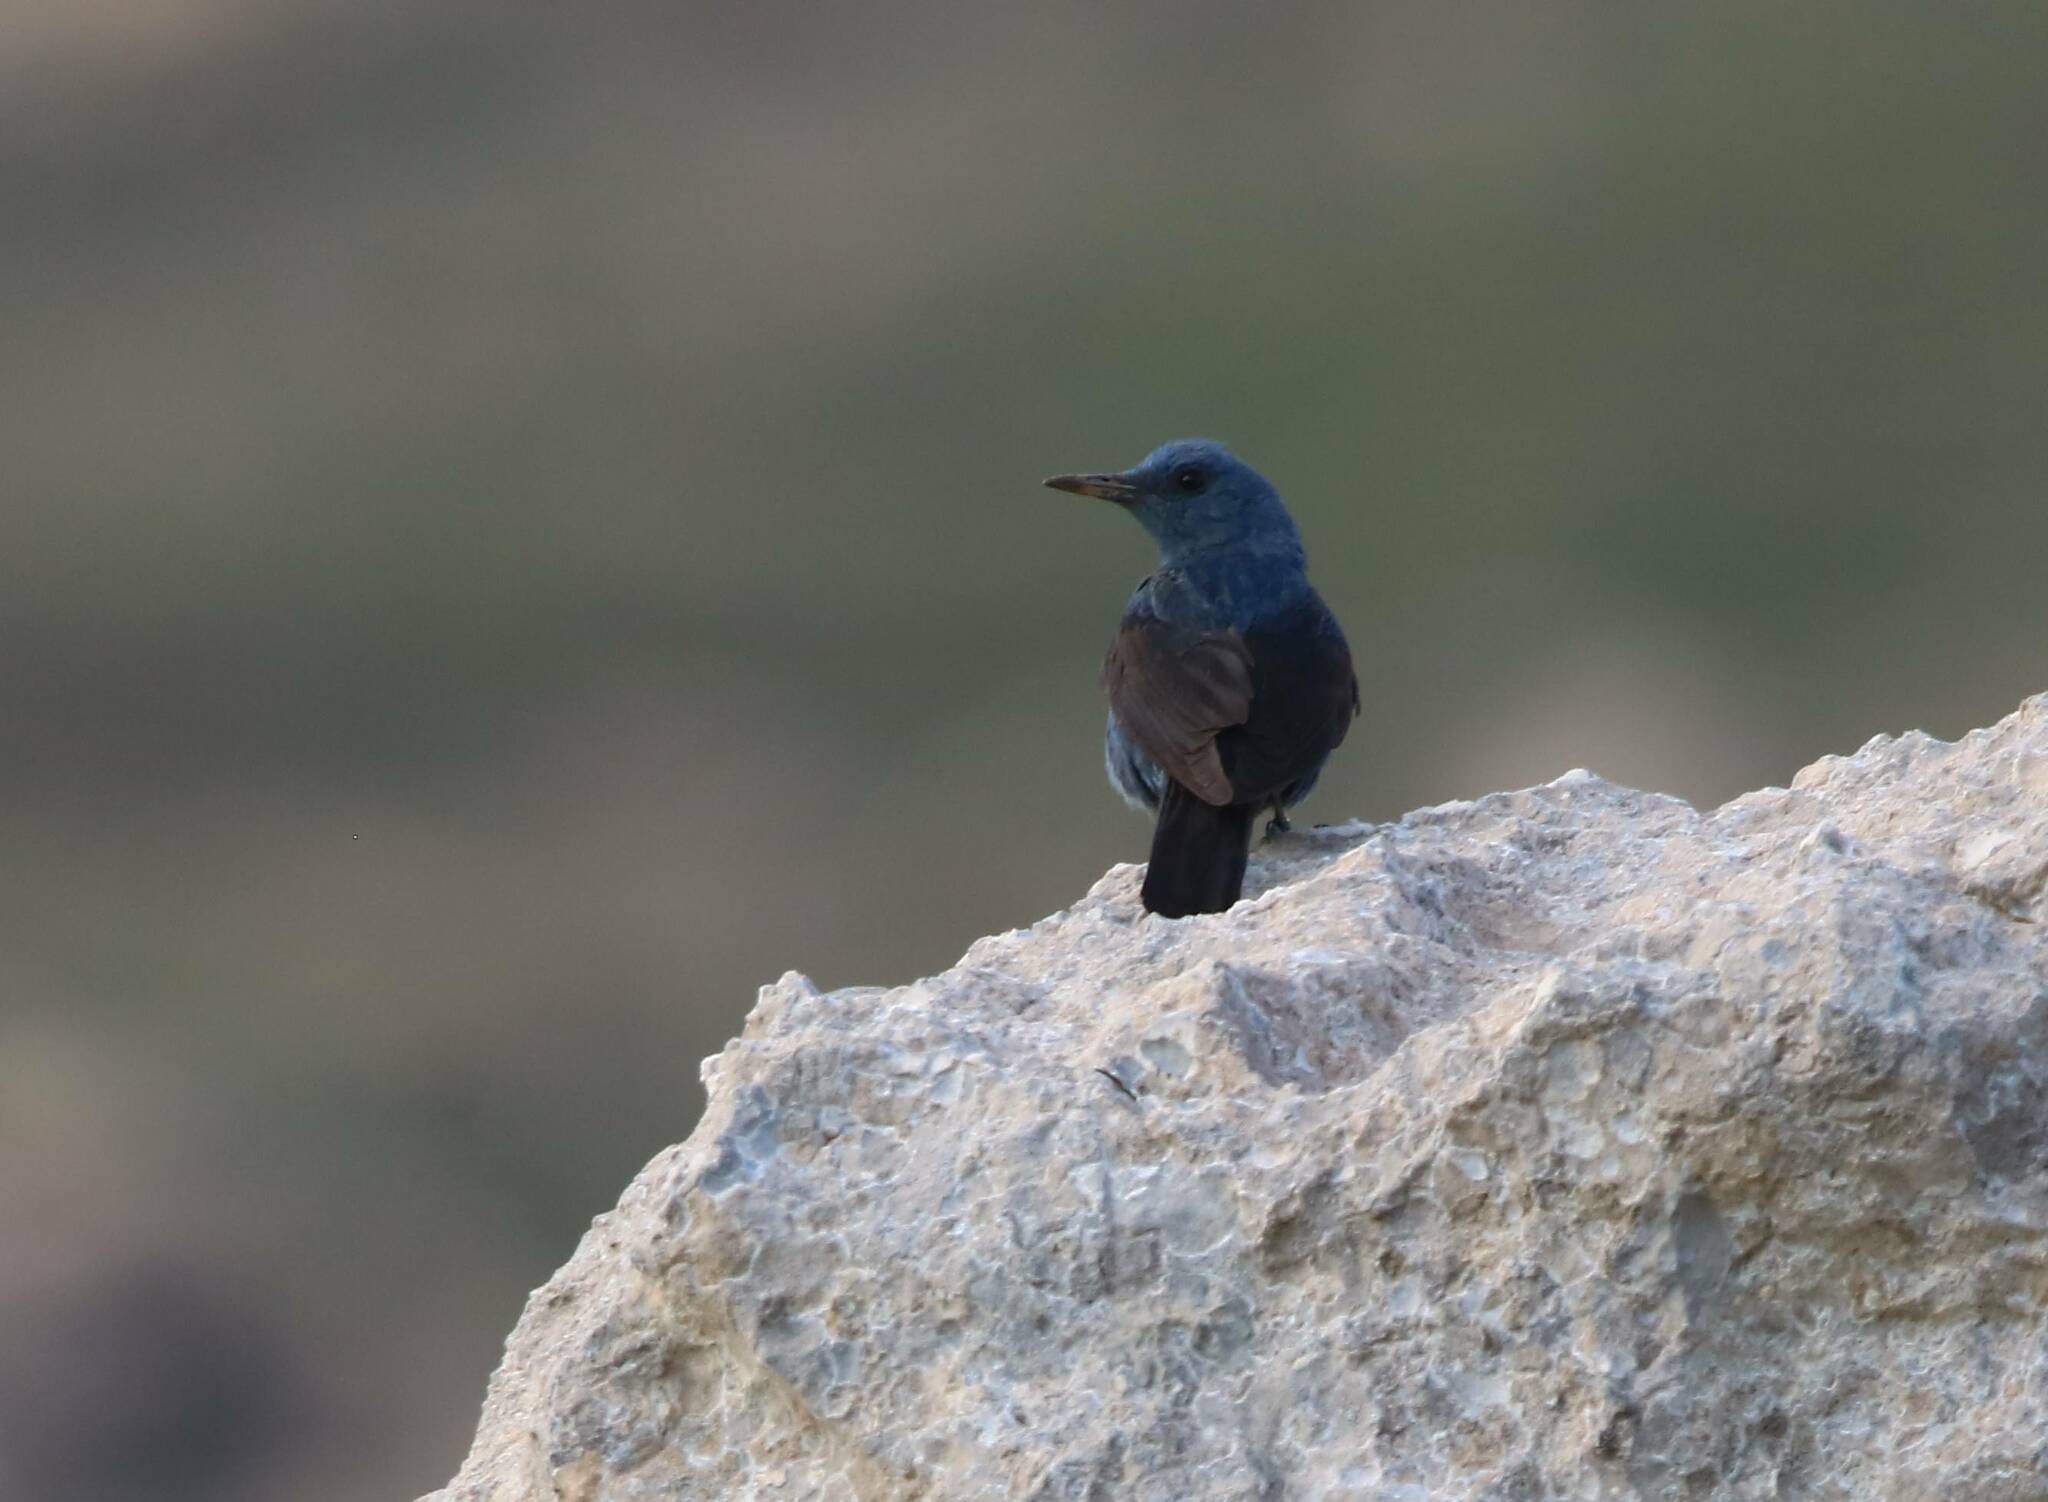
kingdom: Animalia
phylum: Chordata
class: Aves
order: Passeriformes
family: Muscicapidae
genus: Monticola
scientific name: Monticola solitarius
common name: Blue rock thrush
